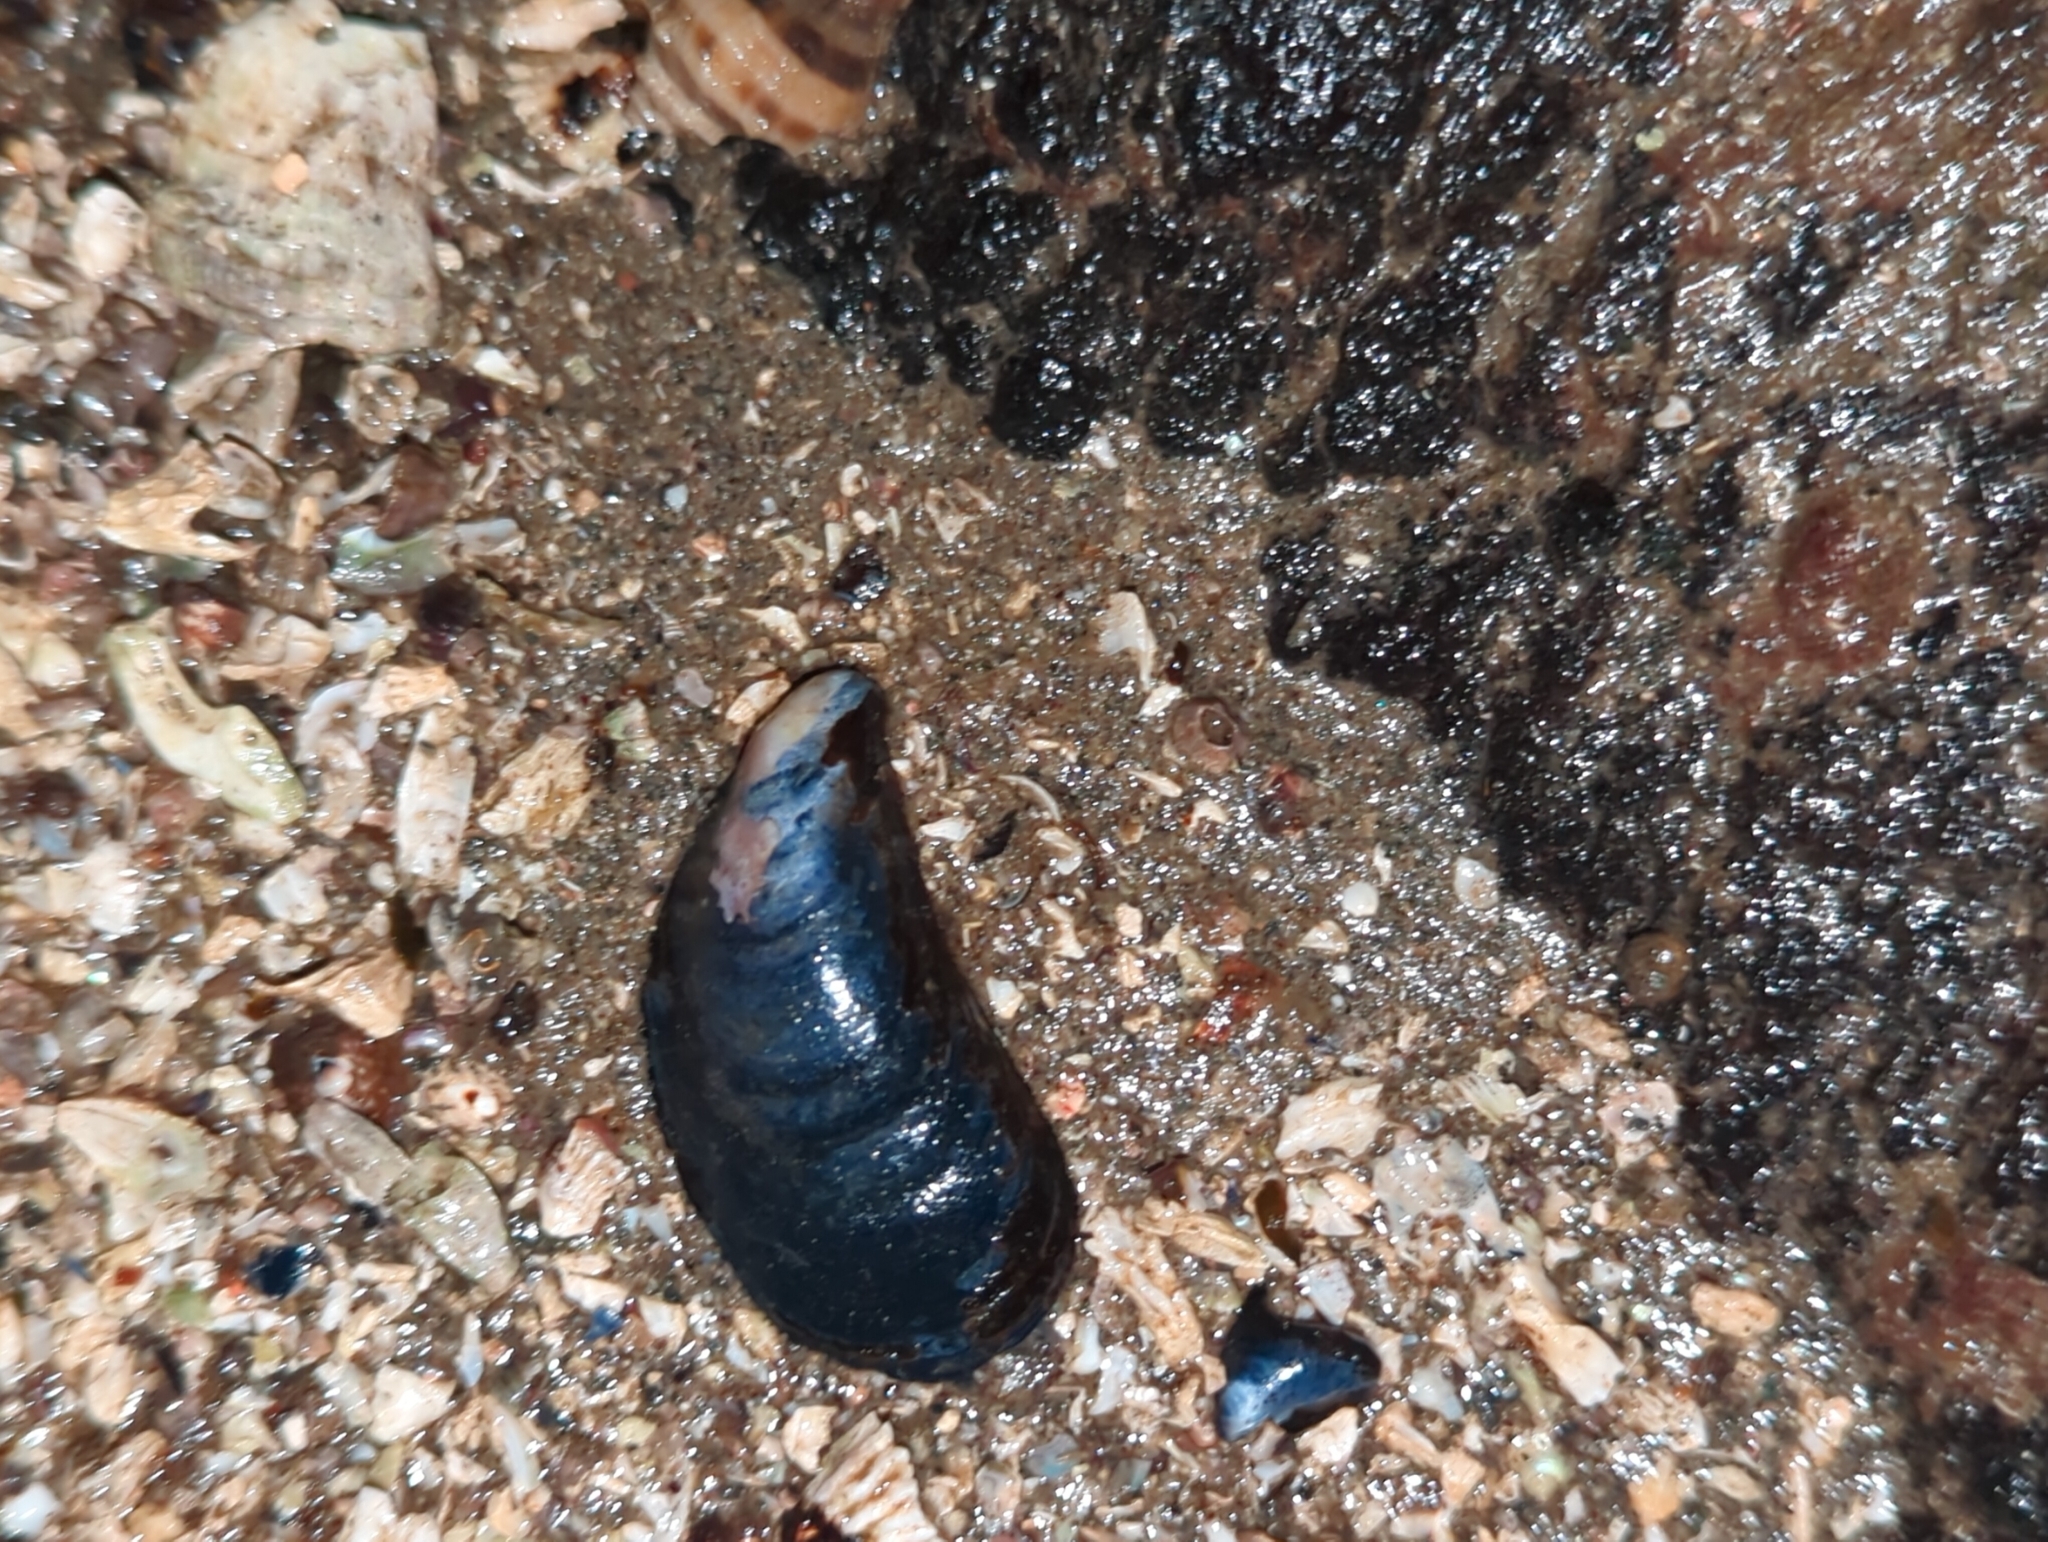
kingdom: Animalia
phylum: Mollusca
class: Bivalvia
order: Mytilida
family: Mytilidae
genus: Mytilus
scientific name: Mytilus
